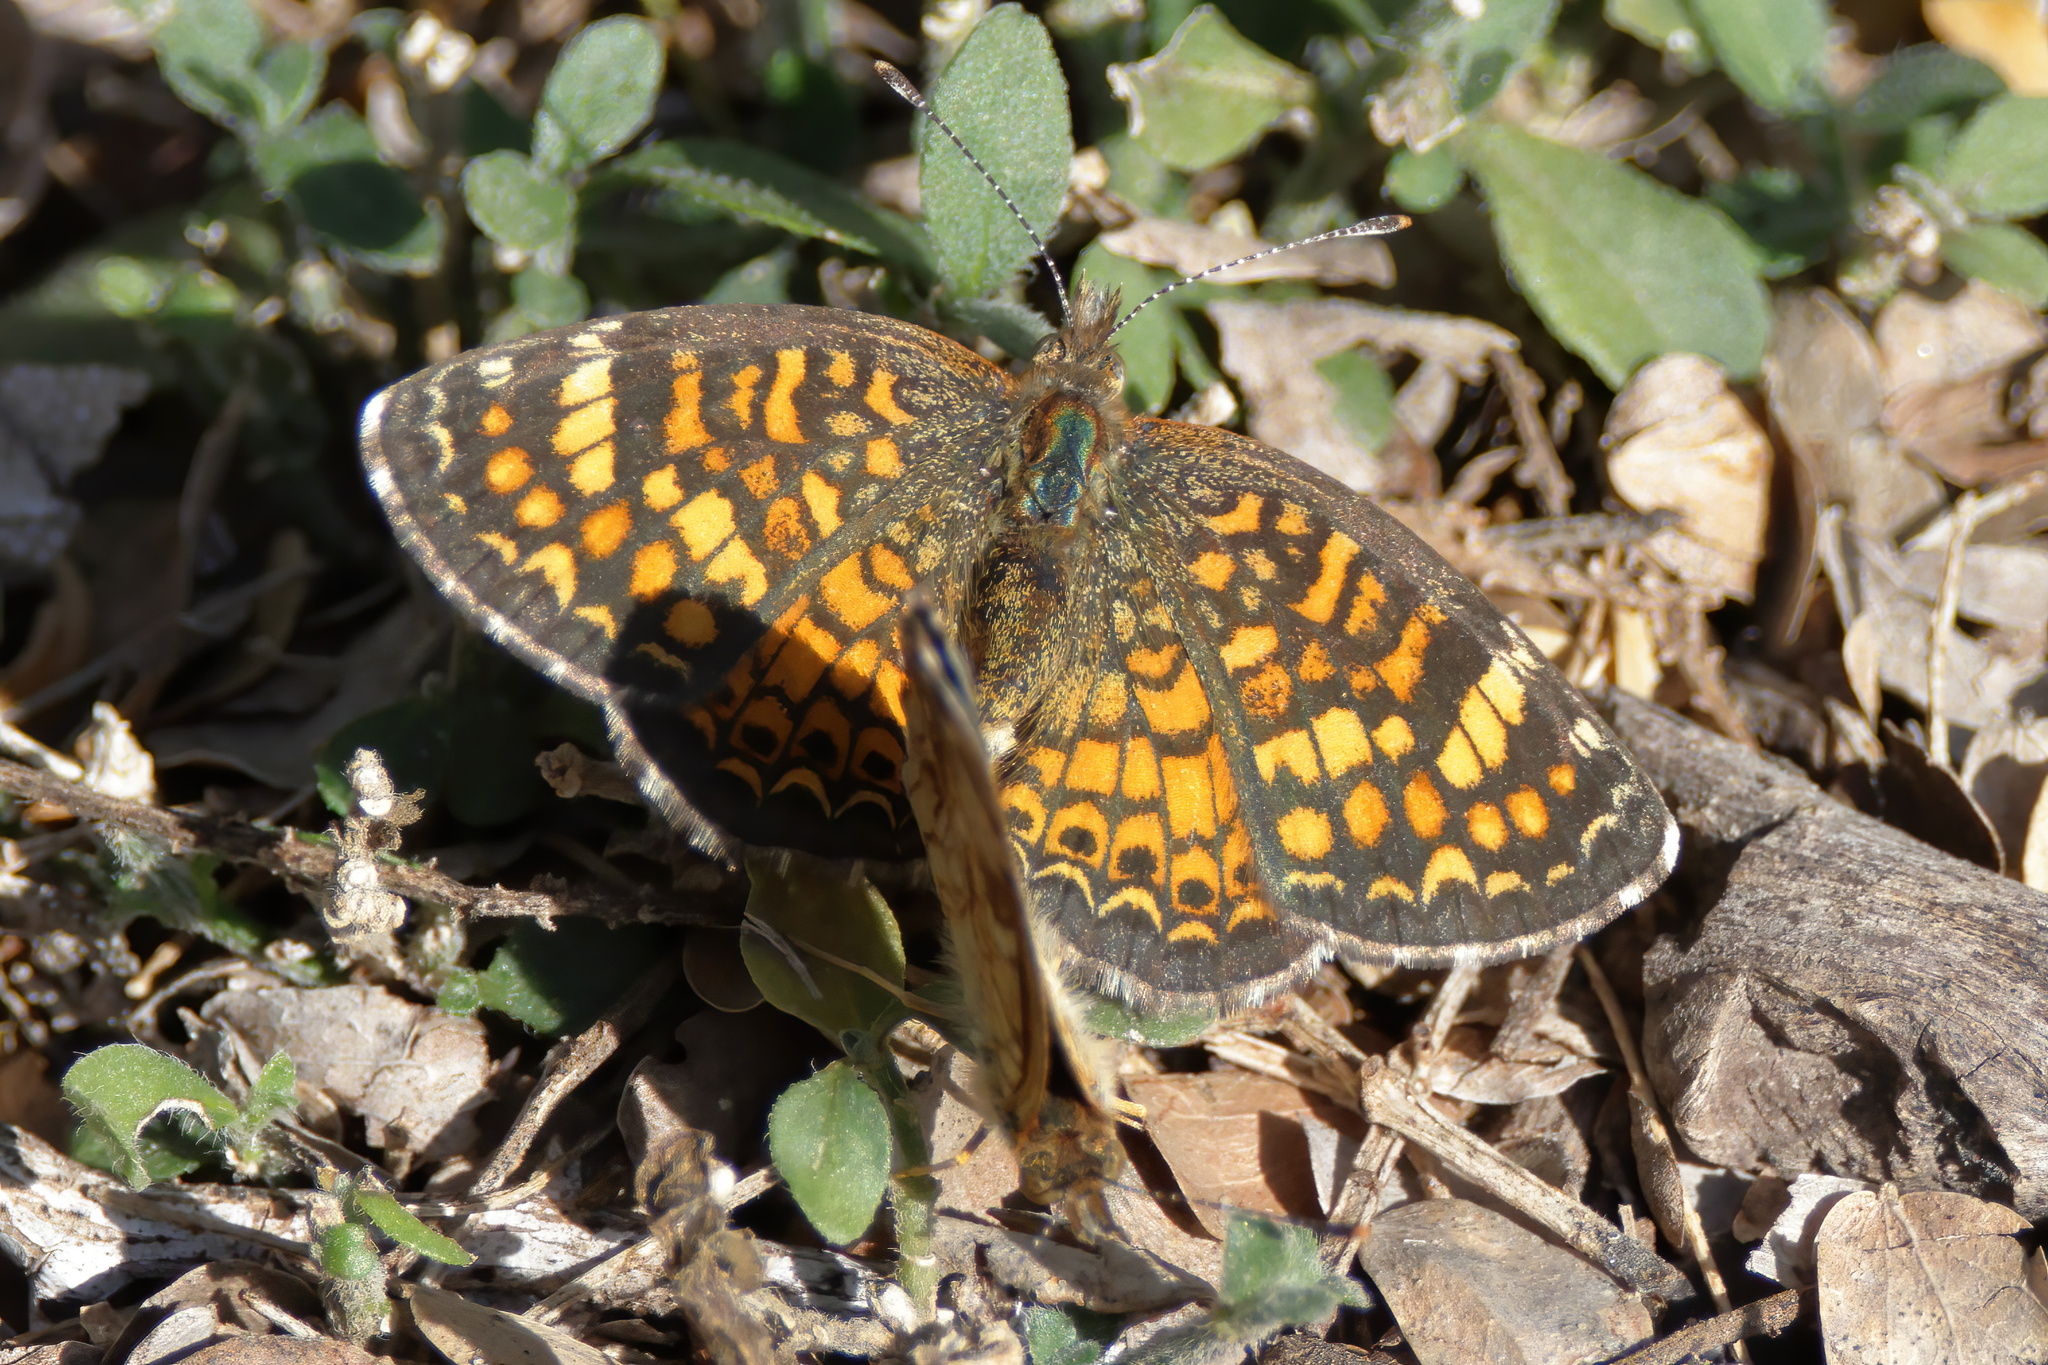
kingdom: Animalia
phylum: Arthropoda
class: Insecta
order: Lepidoptera
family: Nymphalidae
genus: Phyciodes
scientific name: Phyciodes vesta
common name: Vesta crescent
